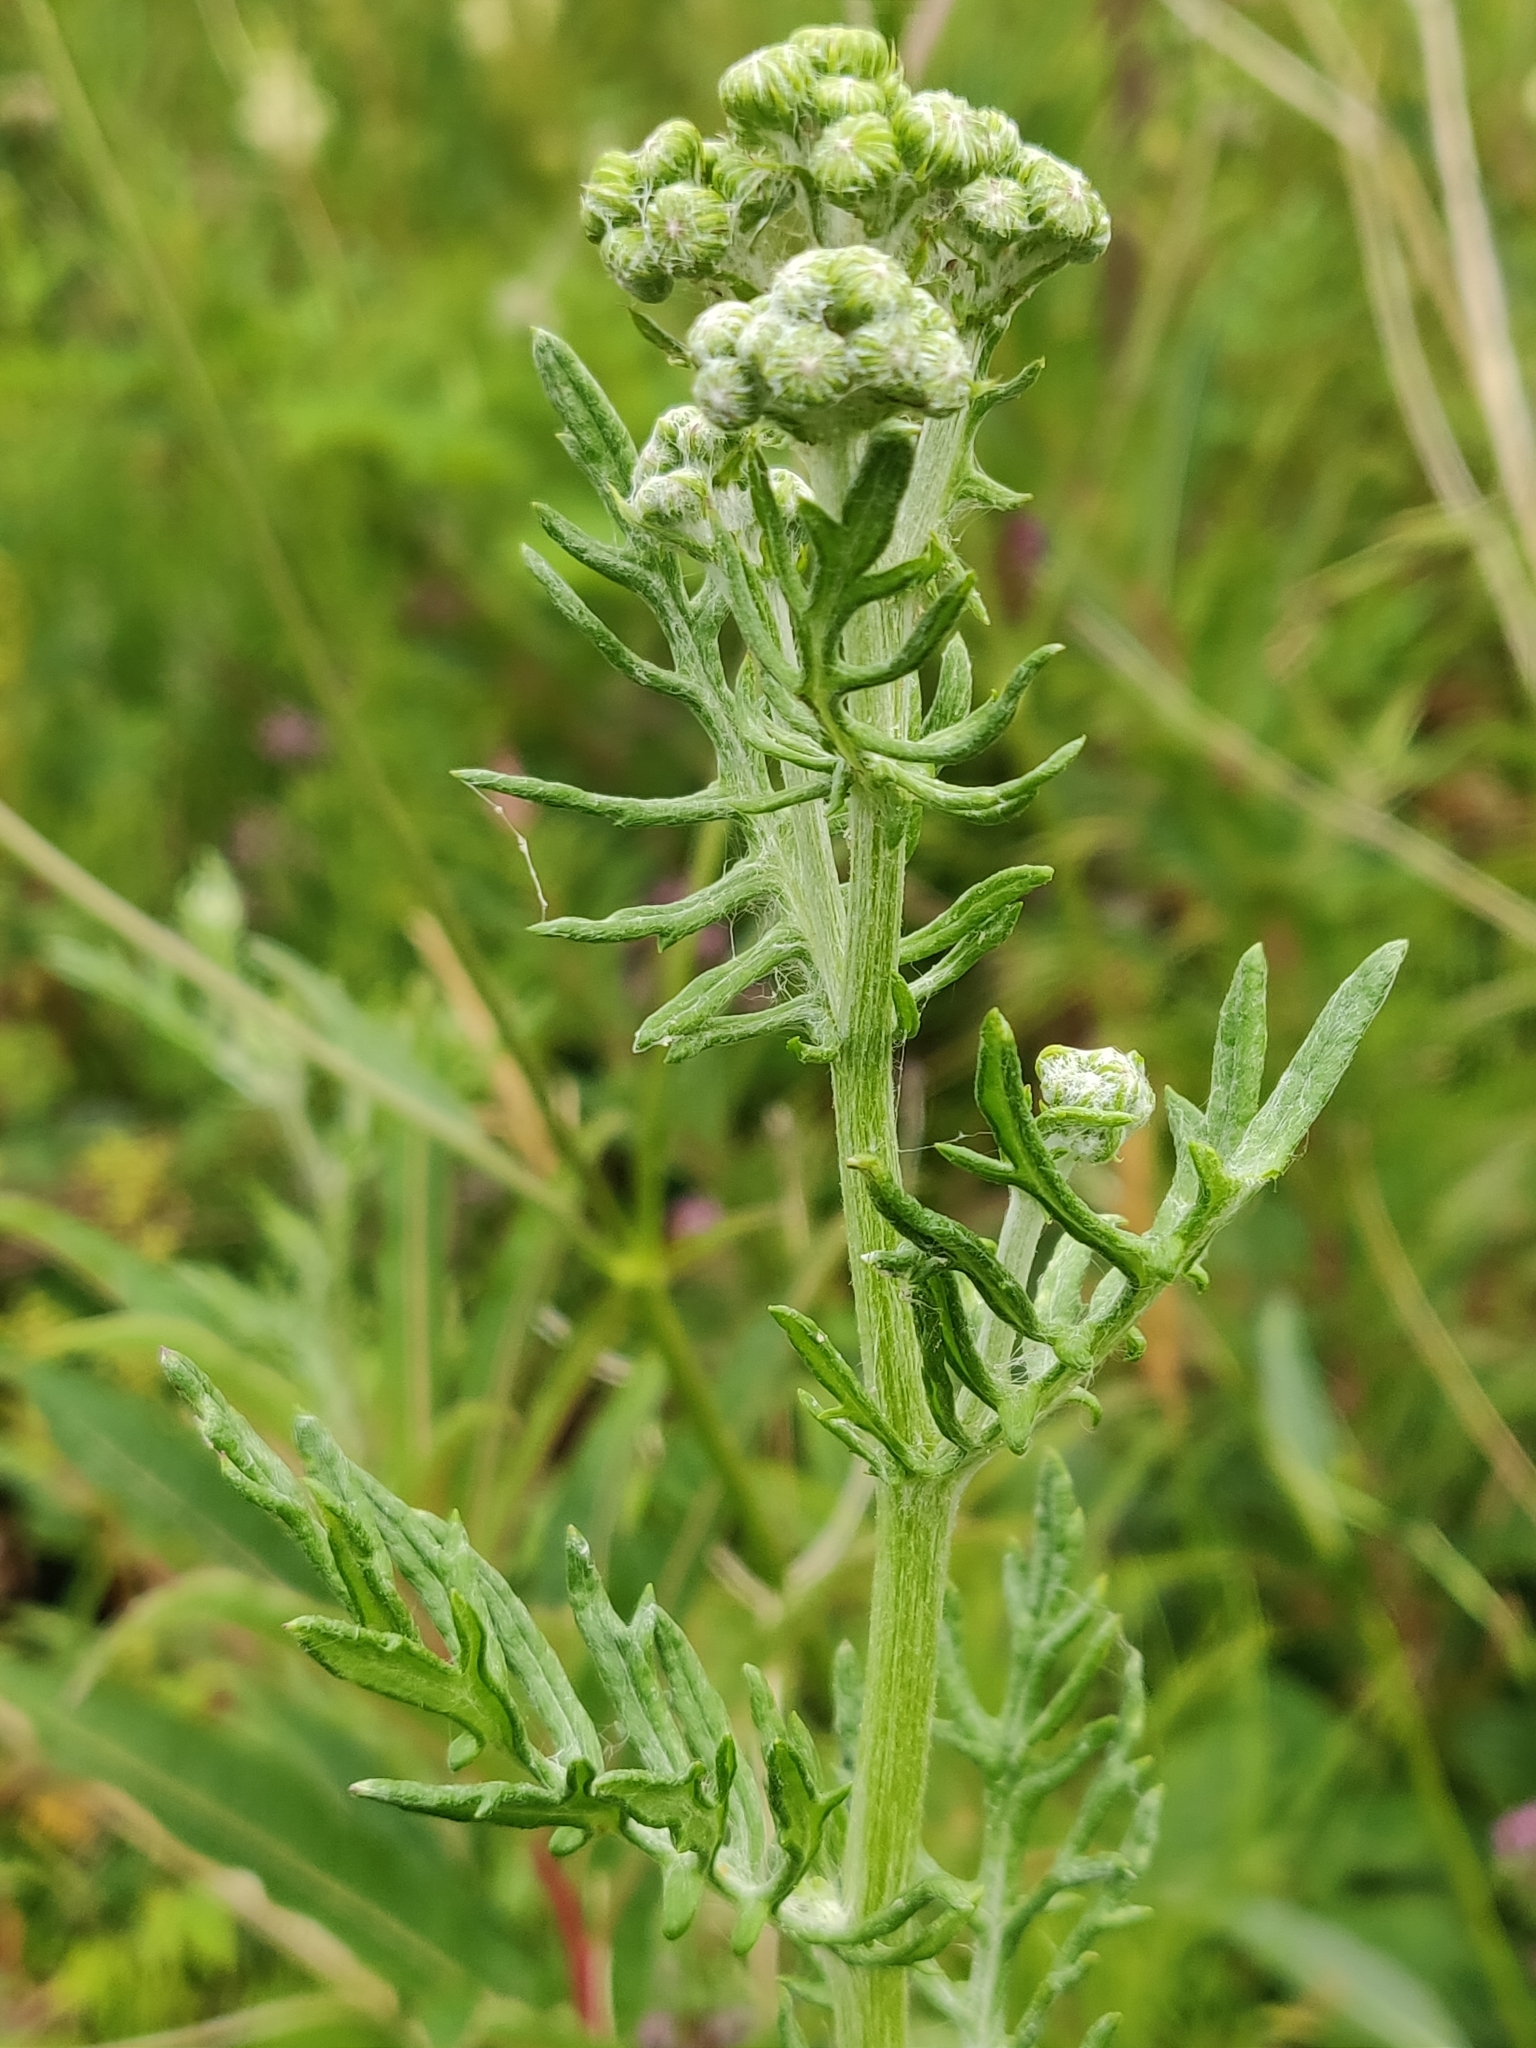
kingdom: Plantae
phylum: Tracheophyta
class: Magnoliopsida
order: Asterales
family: Asteraceae
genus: Jacobaea
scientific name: Jacobaea erucifolia
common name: Hoary ragwort
